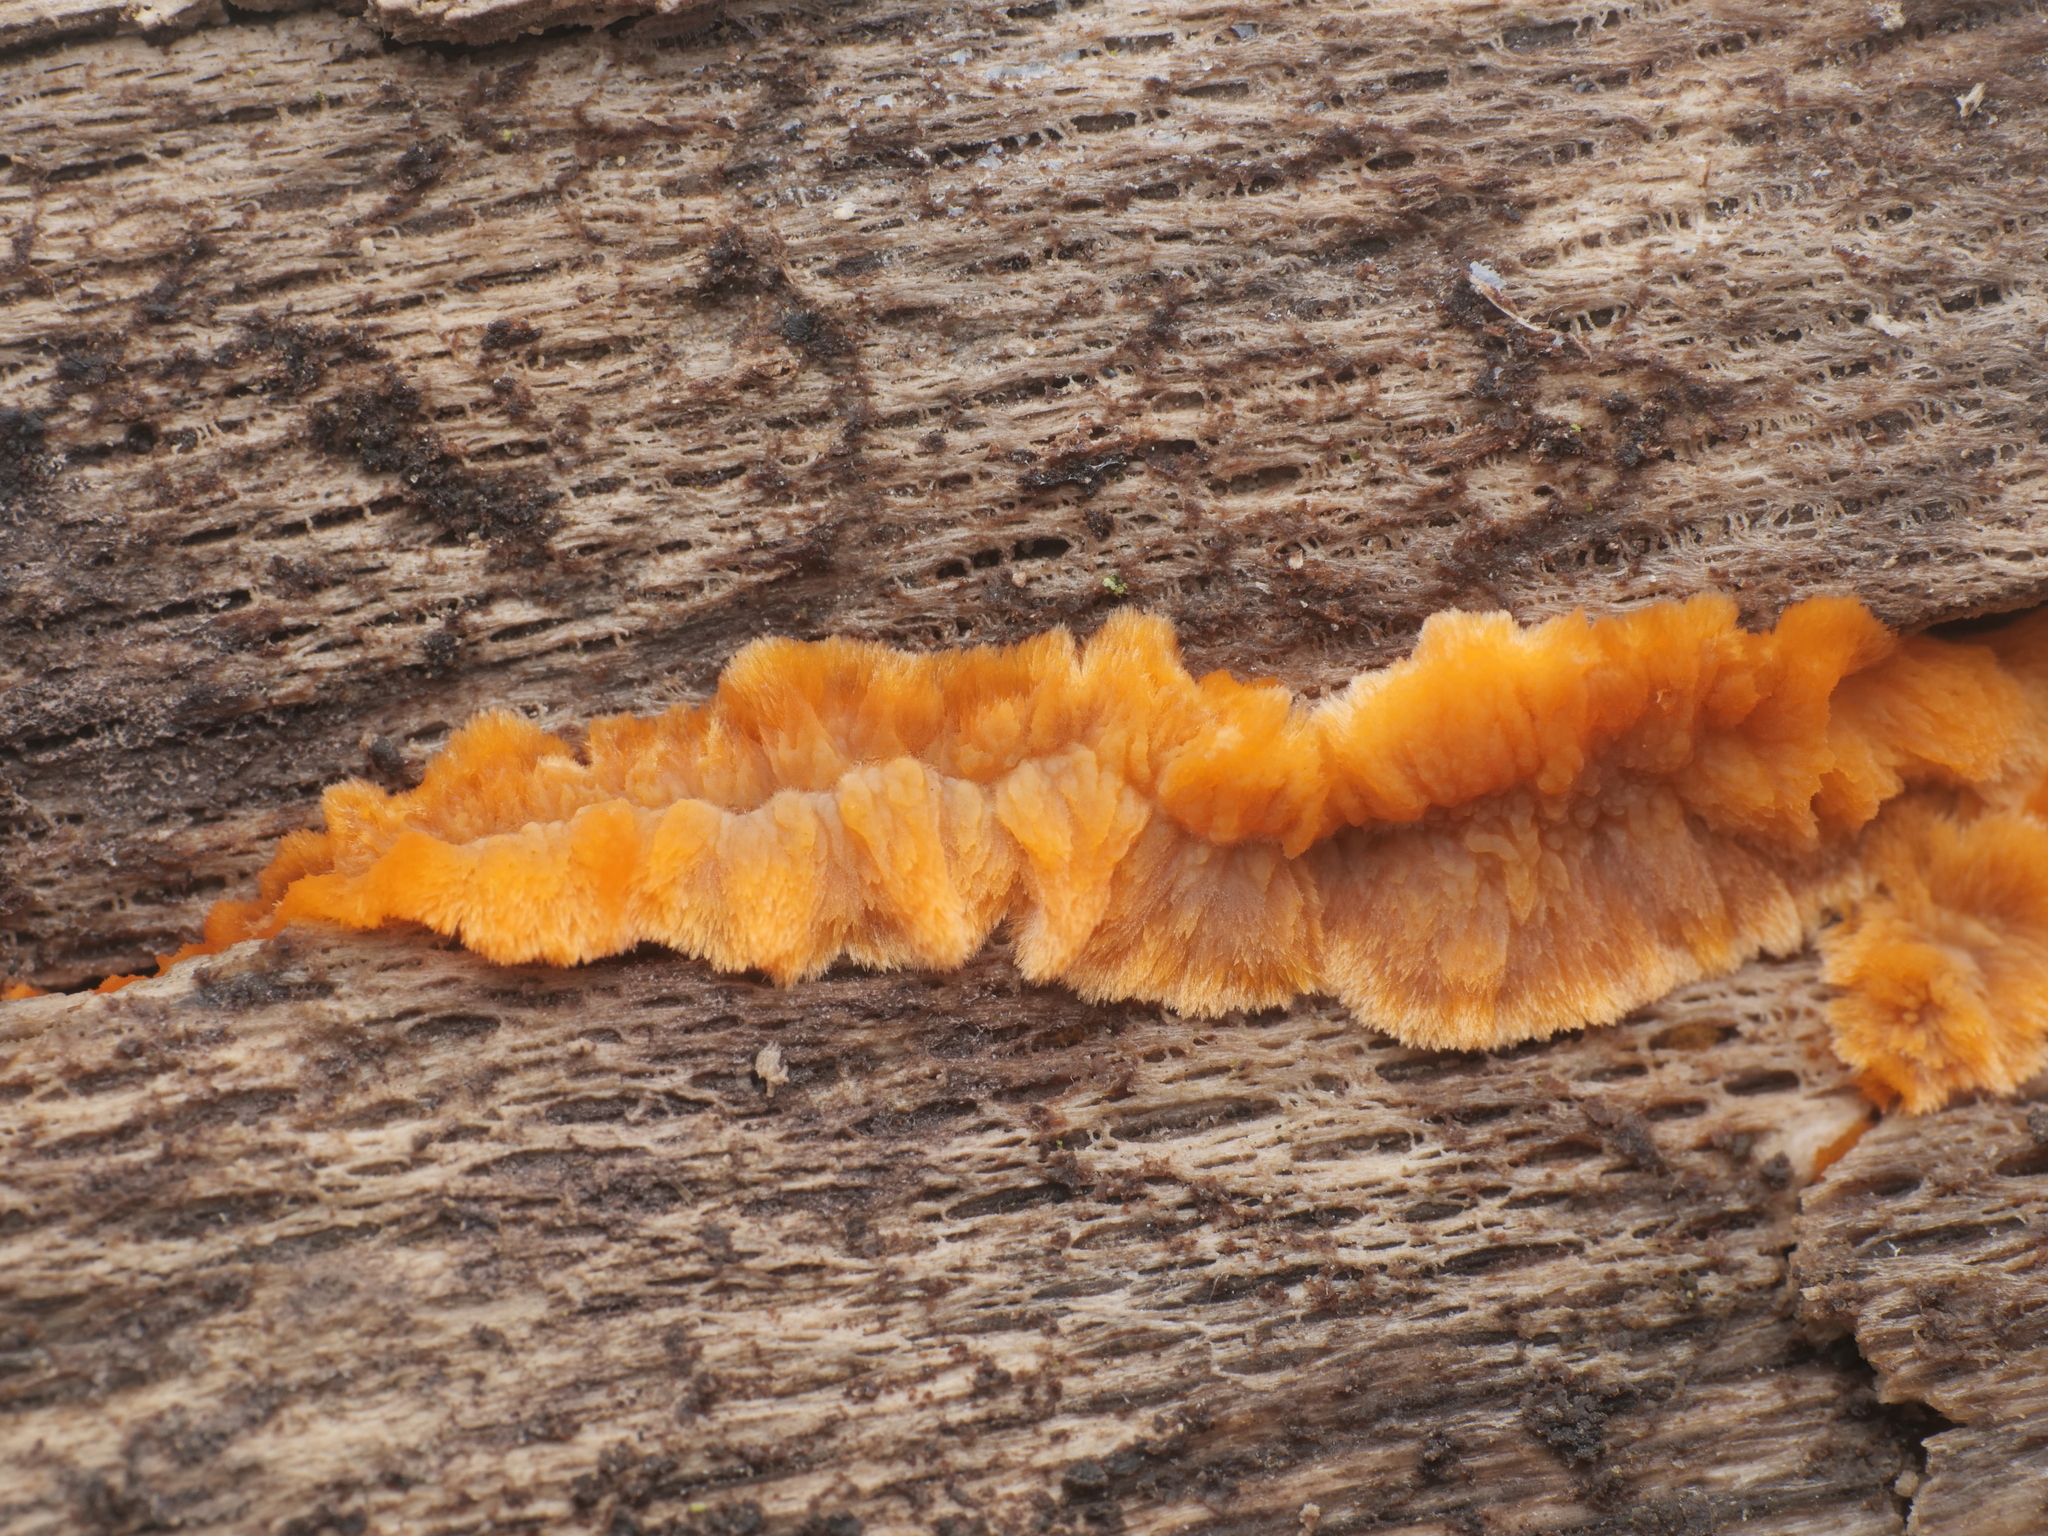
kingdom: Fungi
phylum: Basidiomycota
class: Agaricomycetes
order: Polyporales
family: Meruliaceae
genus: Phlebia
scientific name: Phlebia radiata
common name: Wrinkled crust
